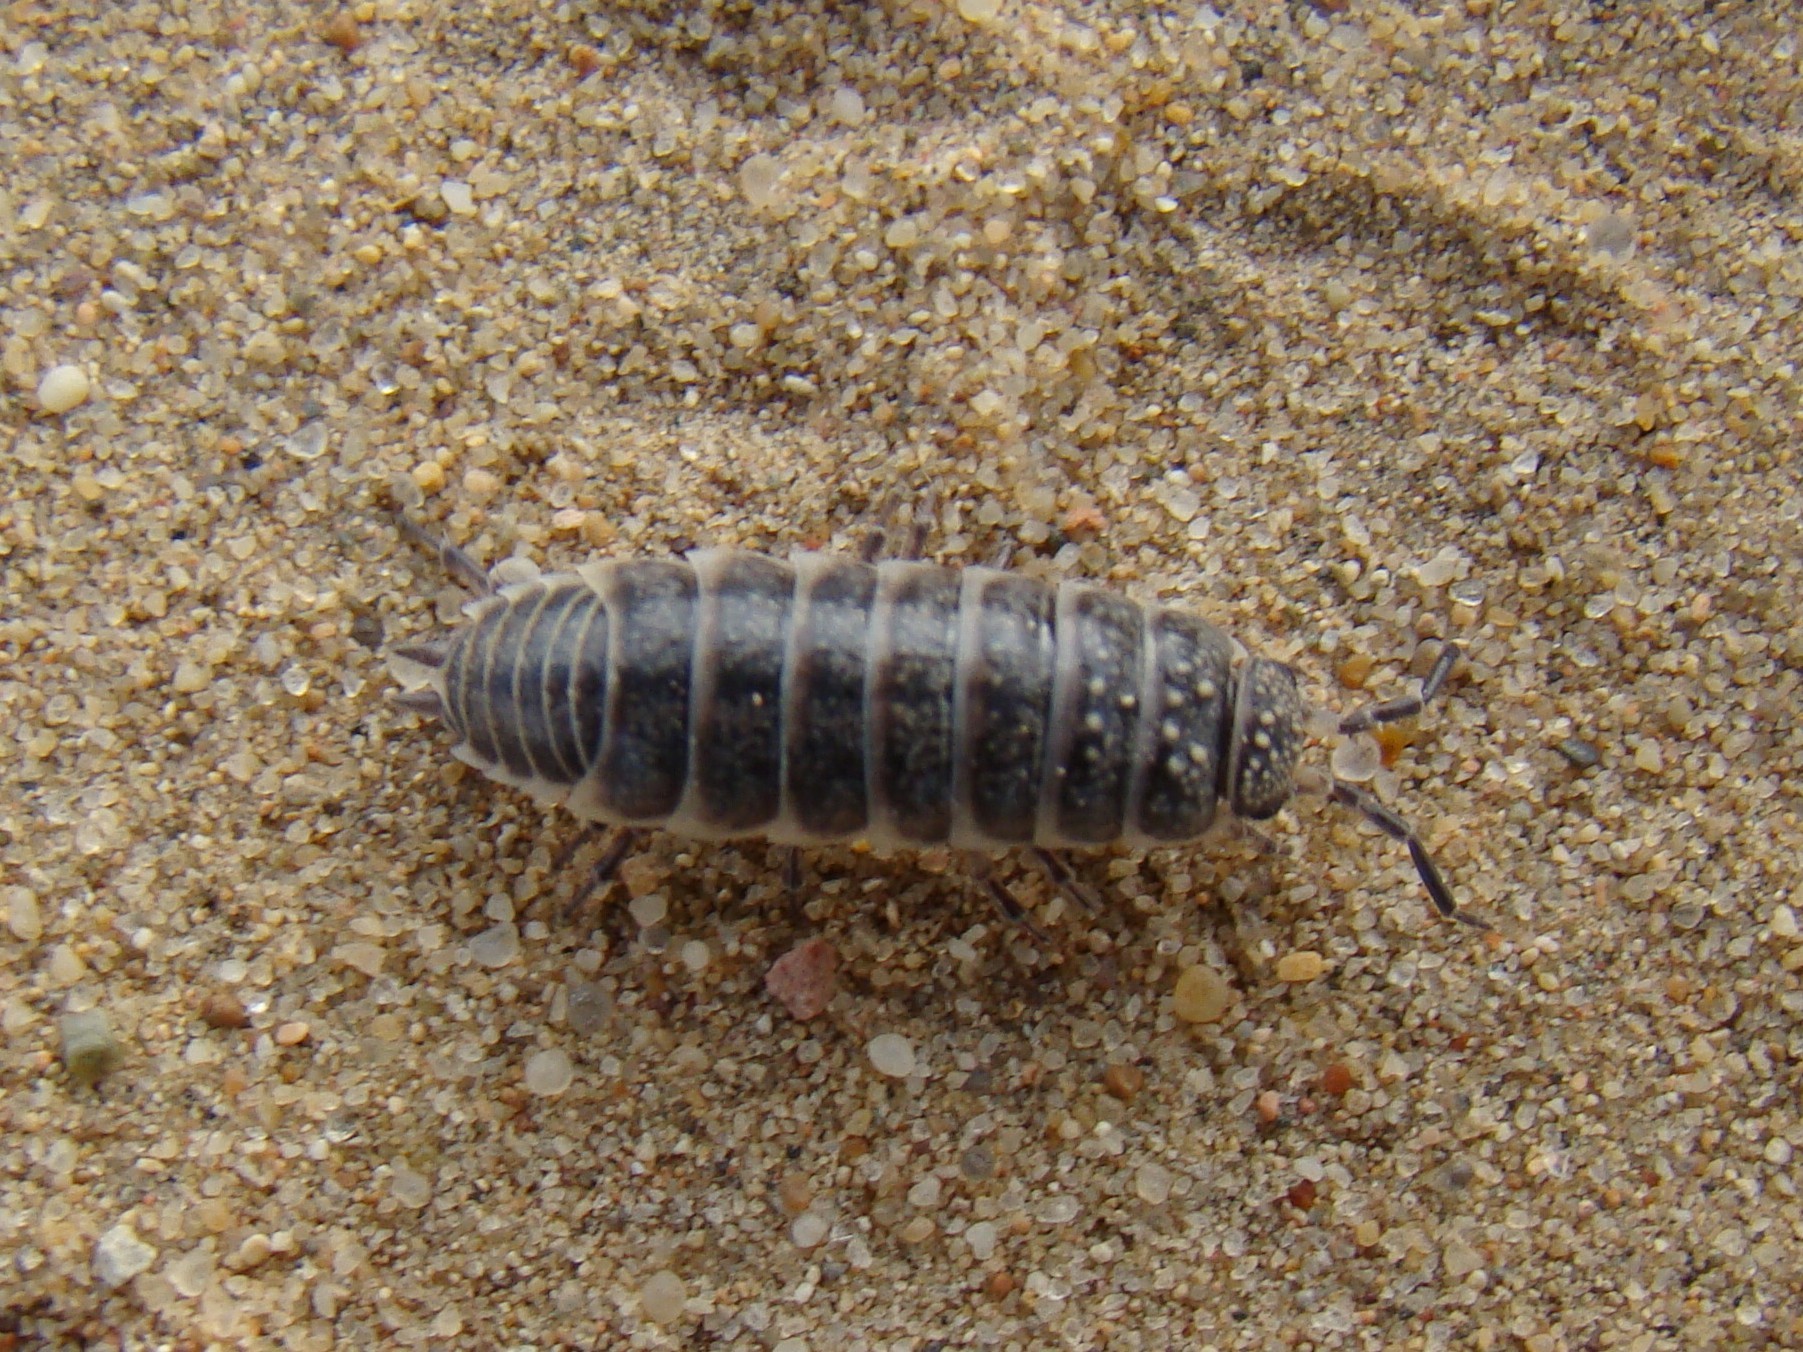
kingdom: Animalia
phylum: Arthropoda
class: Malacostraca
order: Isopoda
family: Agnaridae
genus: Hemilepistus
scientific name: Hemilepistus fedtschenkoi
